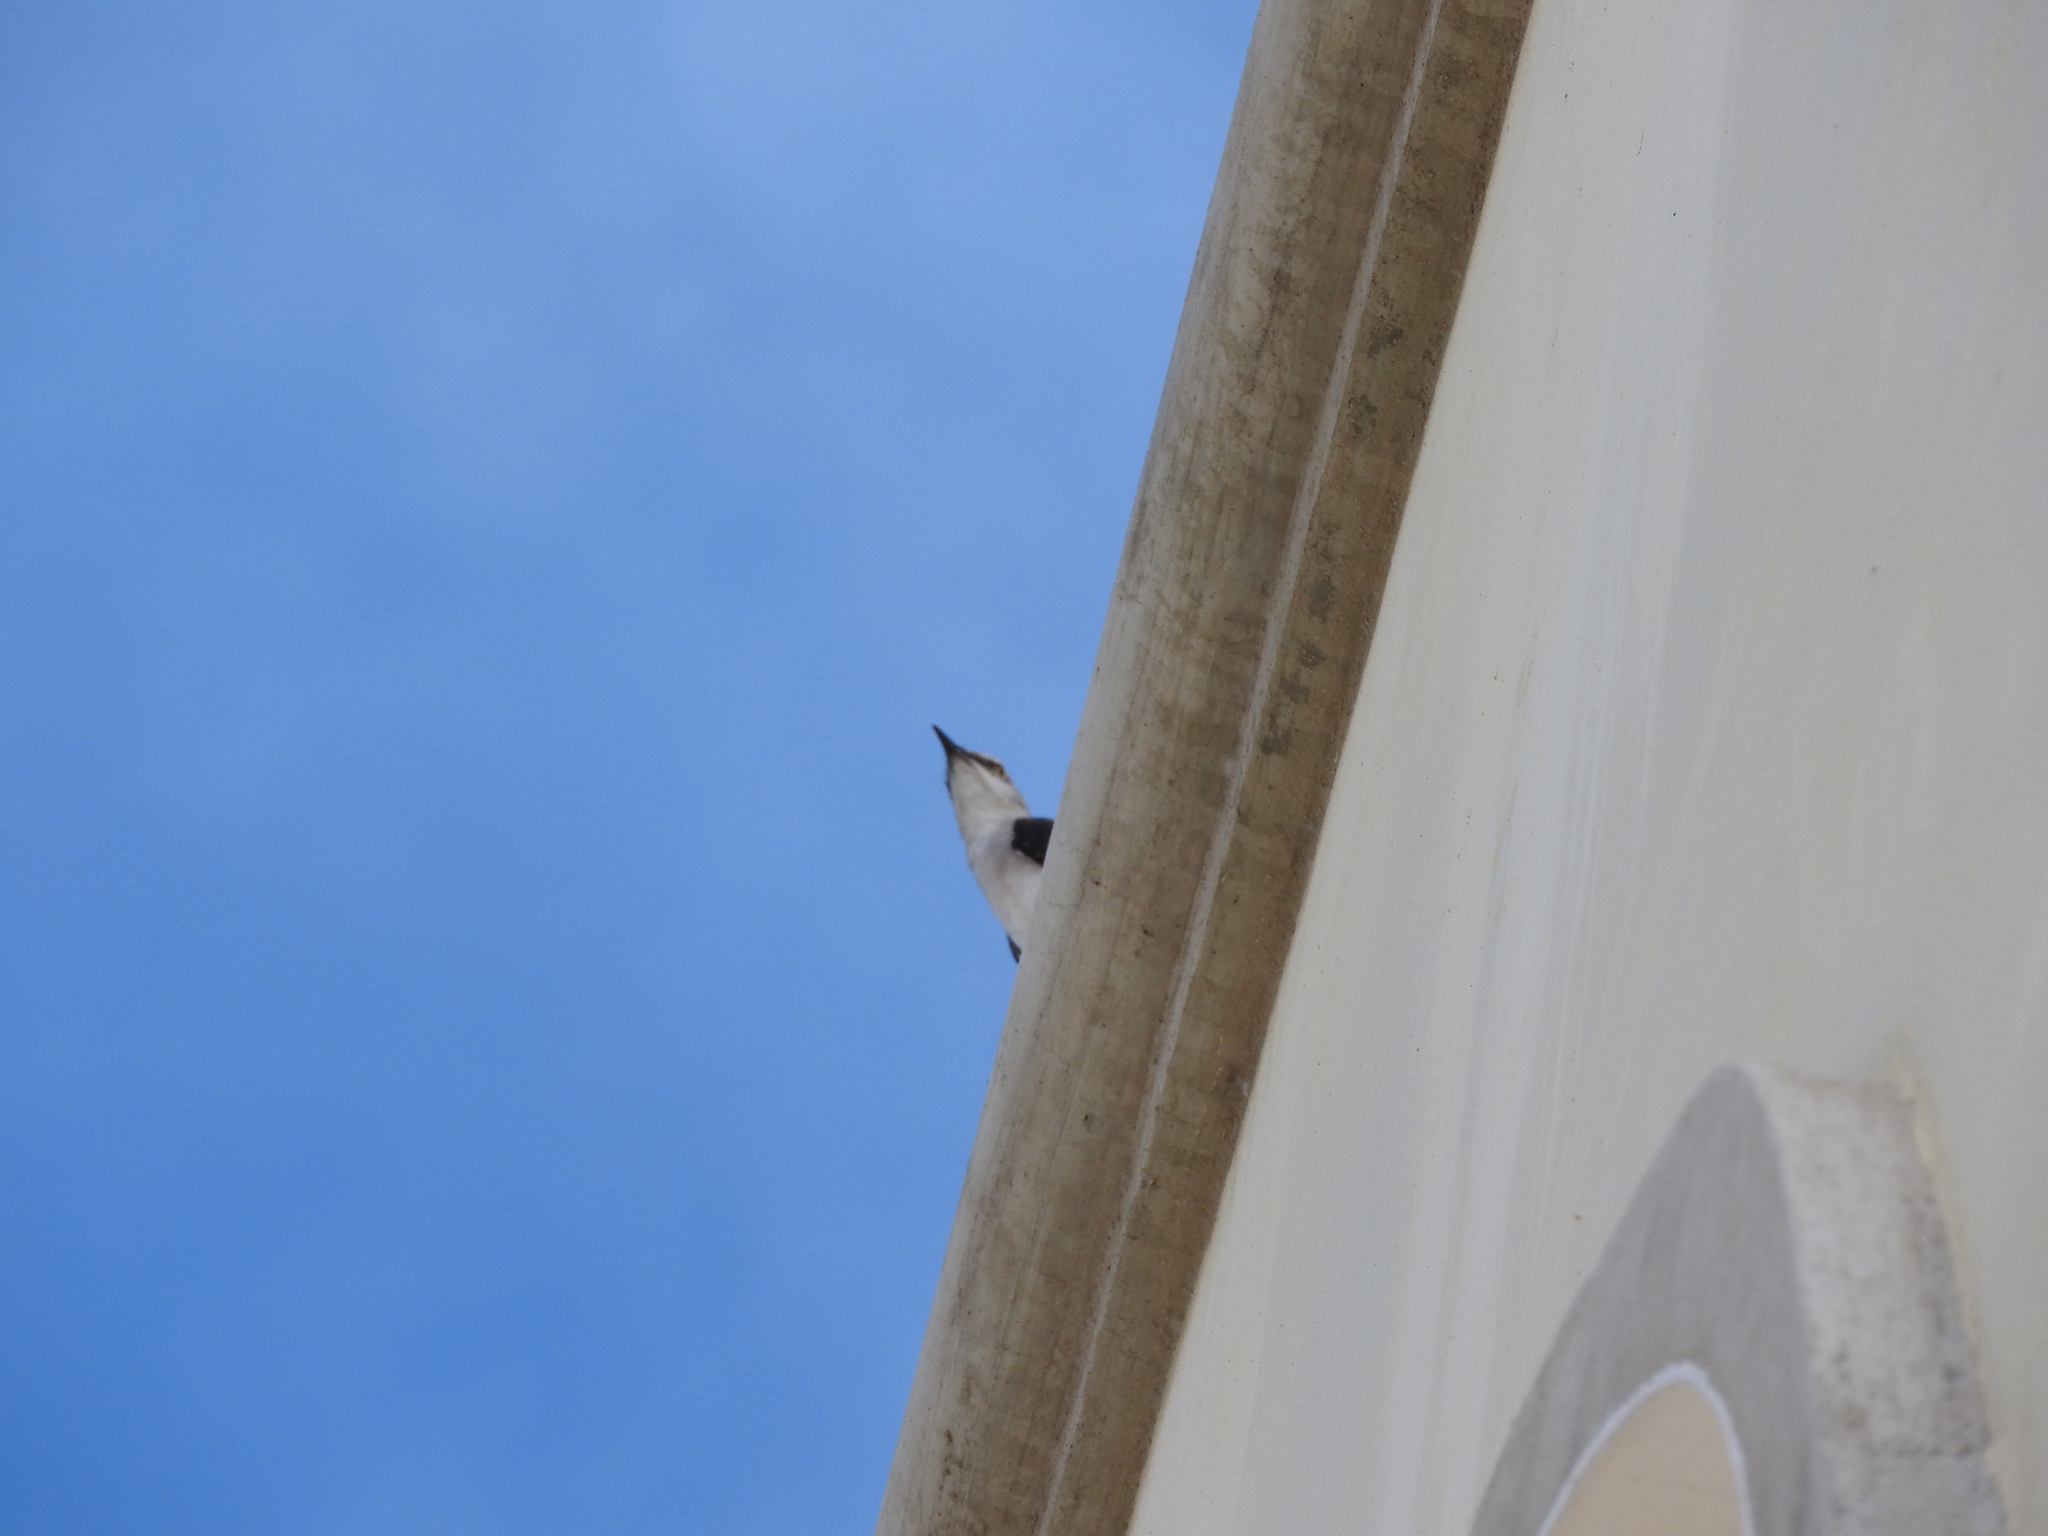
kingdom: Animalia
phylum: Chordata
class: Aves
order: Passeriformes
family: Mimidae
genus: Mimus
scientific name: Mimus gilvus
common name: Tropical mockingbird
